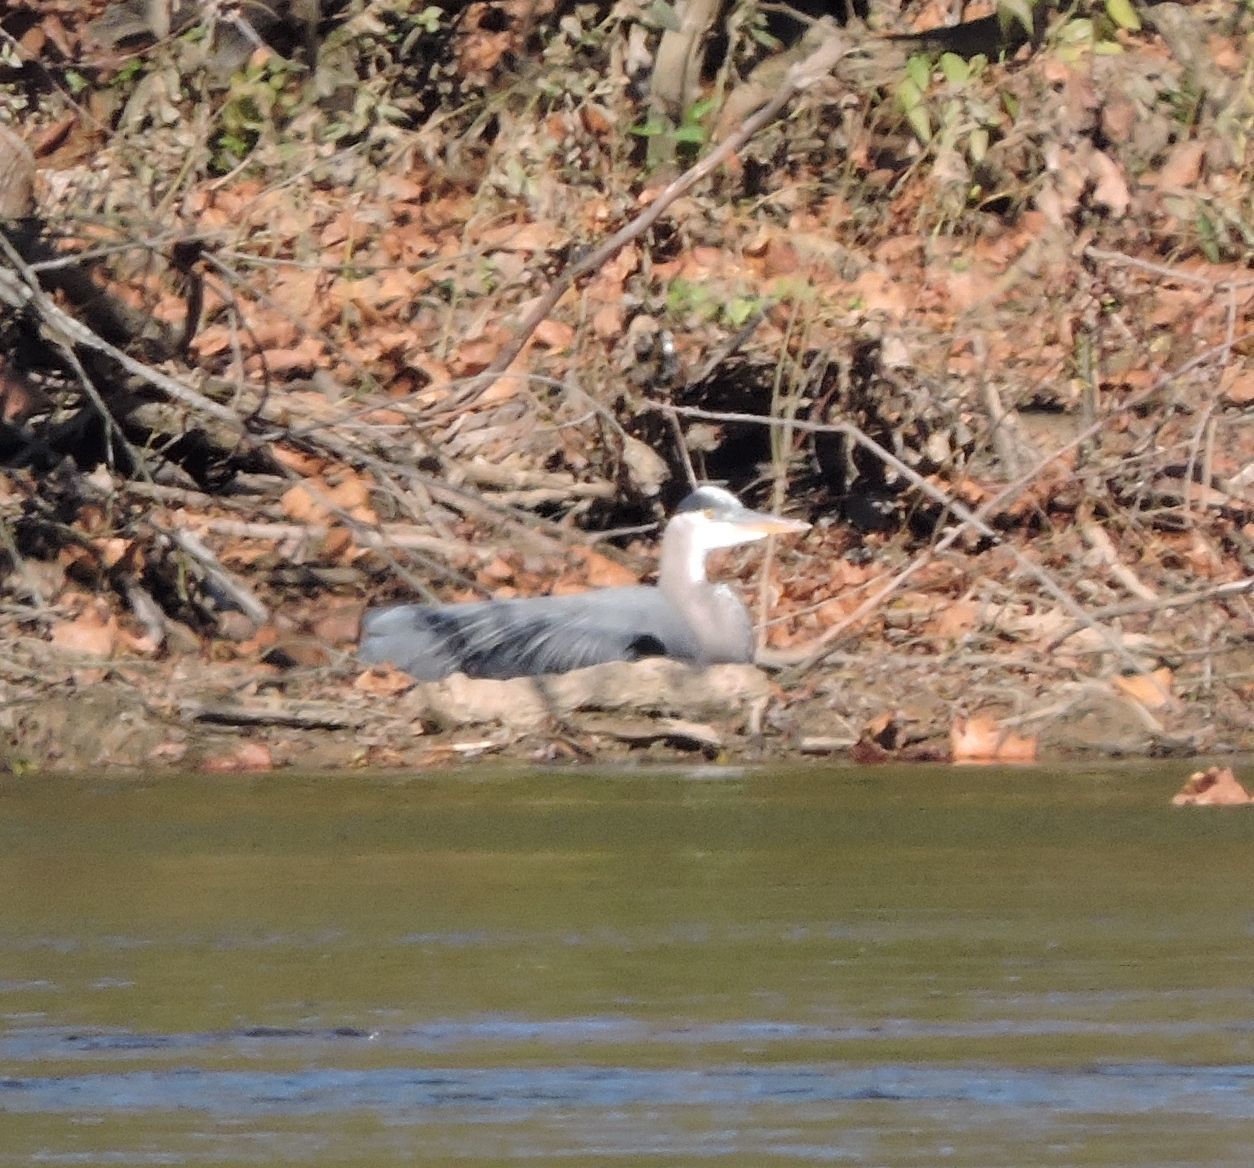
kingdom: Animalia
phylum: Chordata
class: Aves
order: Pelecaniformes
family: Ardeidae
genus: Ardea
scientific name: Ardea herodias
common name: Great blue heron
